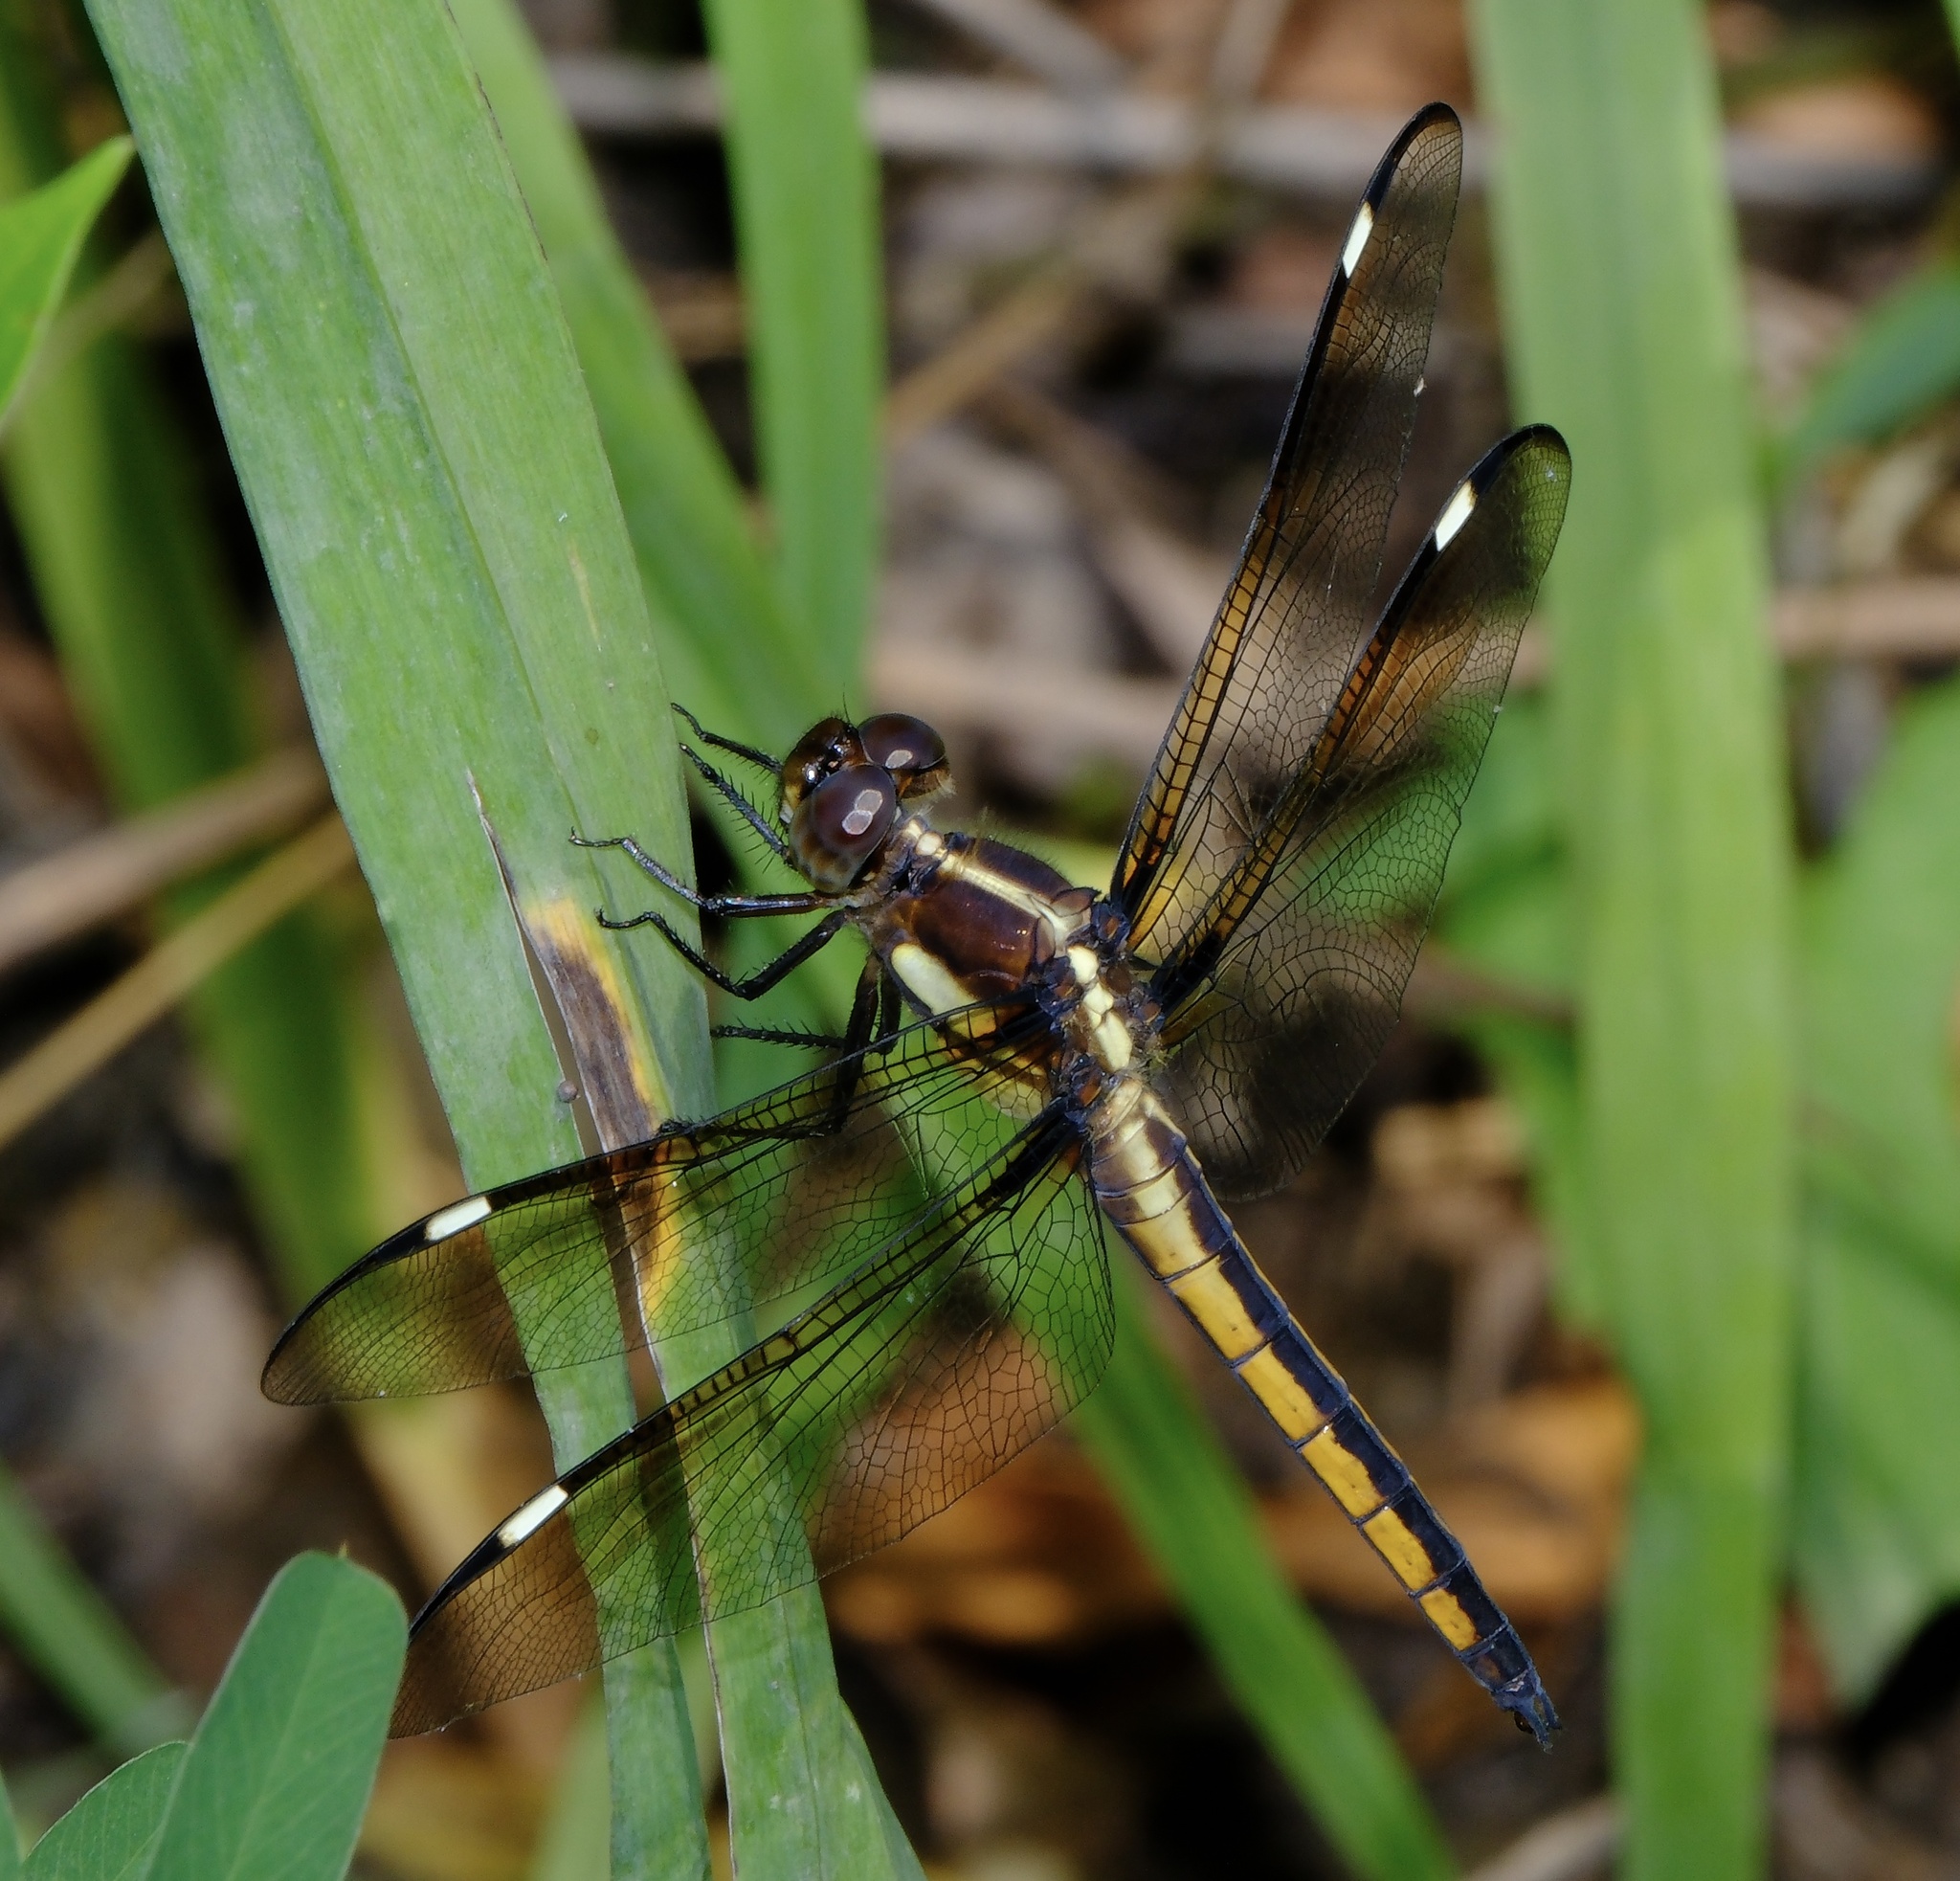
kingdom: Animalia
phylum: Arthropoda
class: Insecta
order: Odonata
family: Libellulidae
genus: Libellula
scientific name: Libellula cyanea
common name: Spangled skimmer
